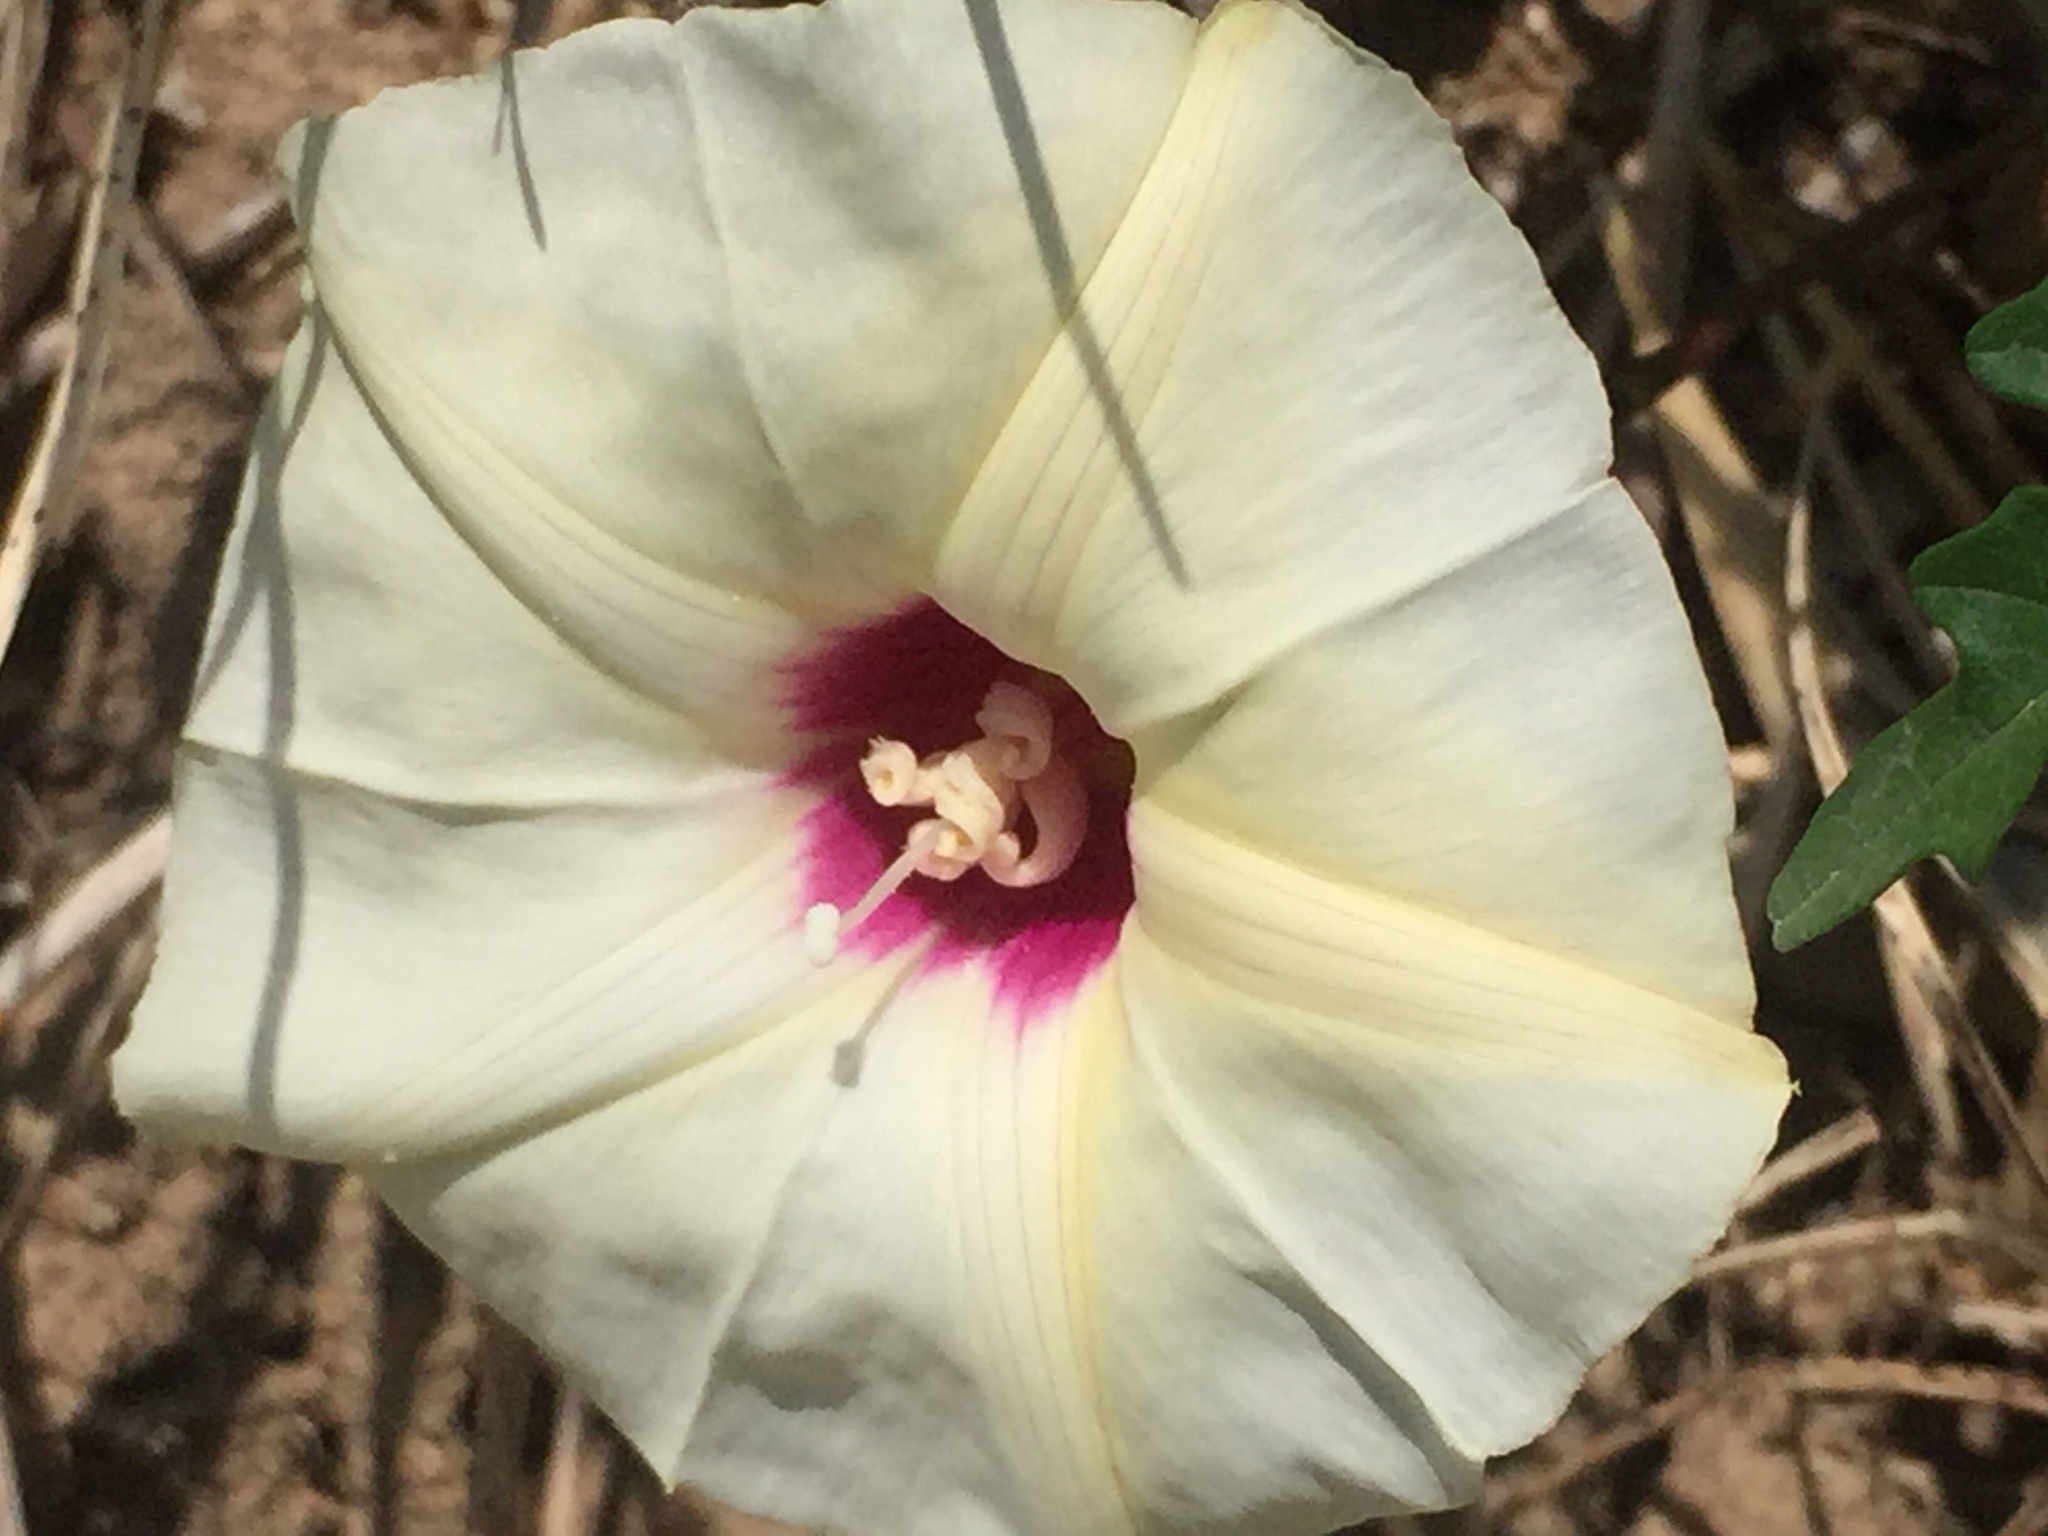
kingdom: Plantae
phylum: Tracheophyta
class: Magnoliopsida
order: Solanales
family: Convolvulaceae
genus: Distimake
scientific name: Distimake dissectus
